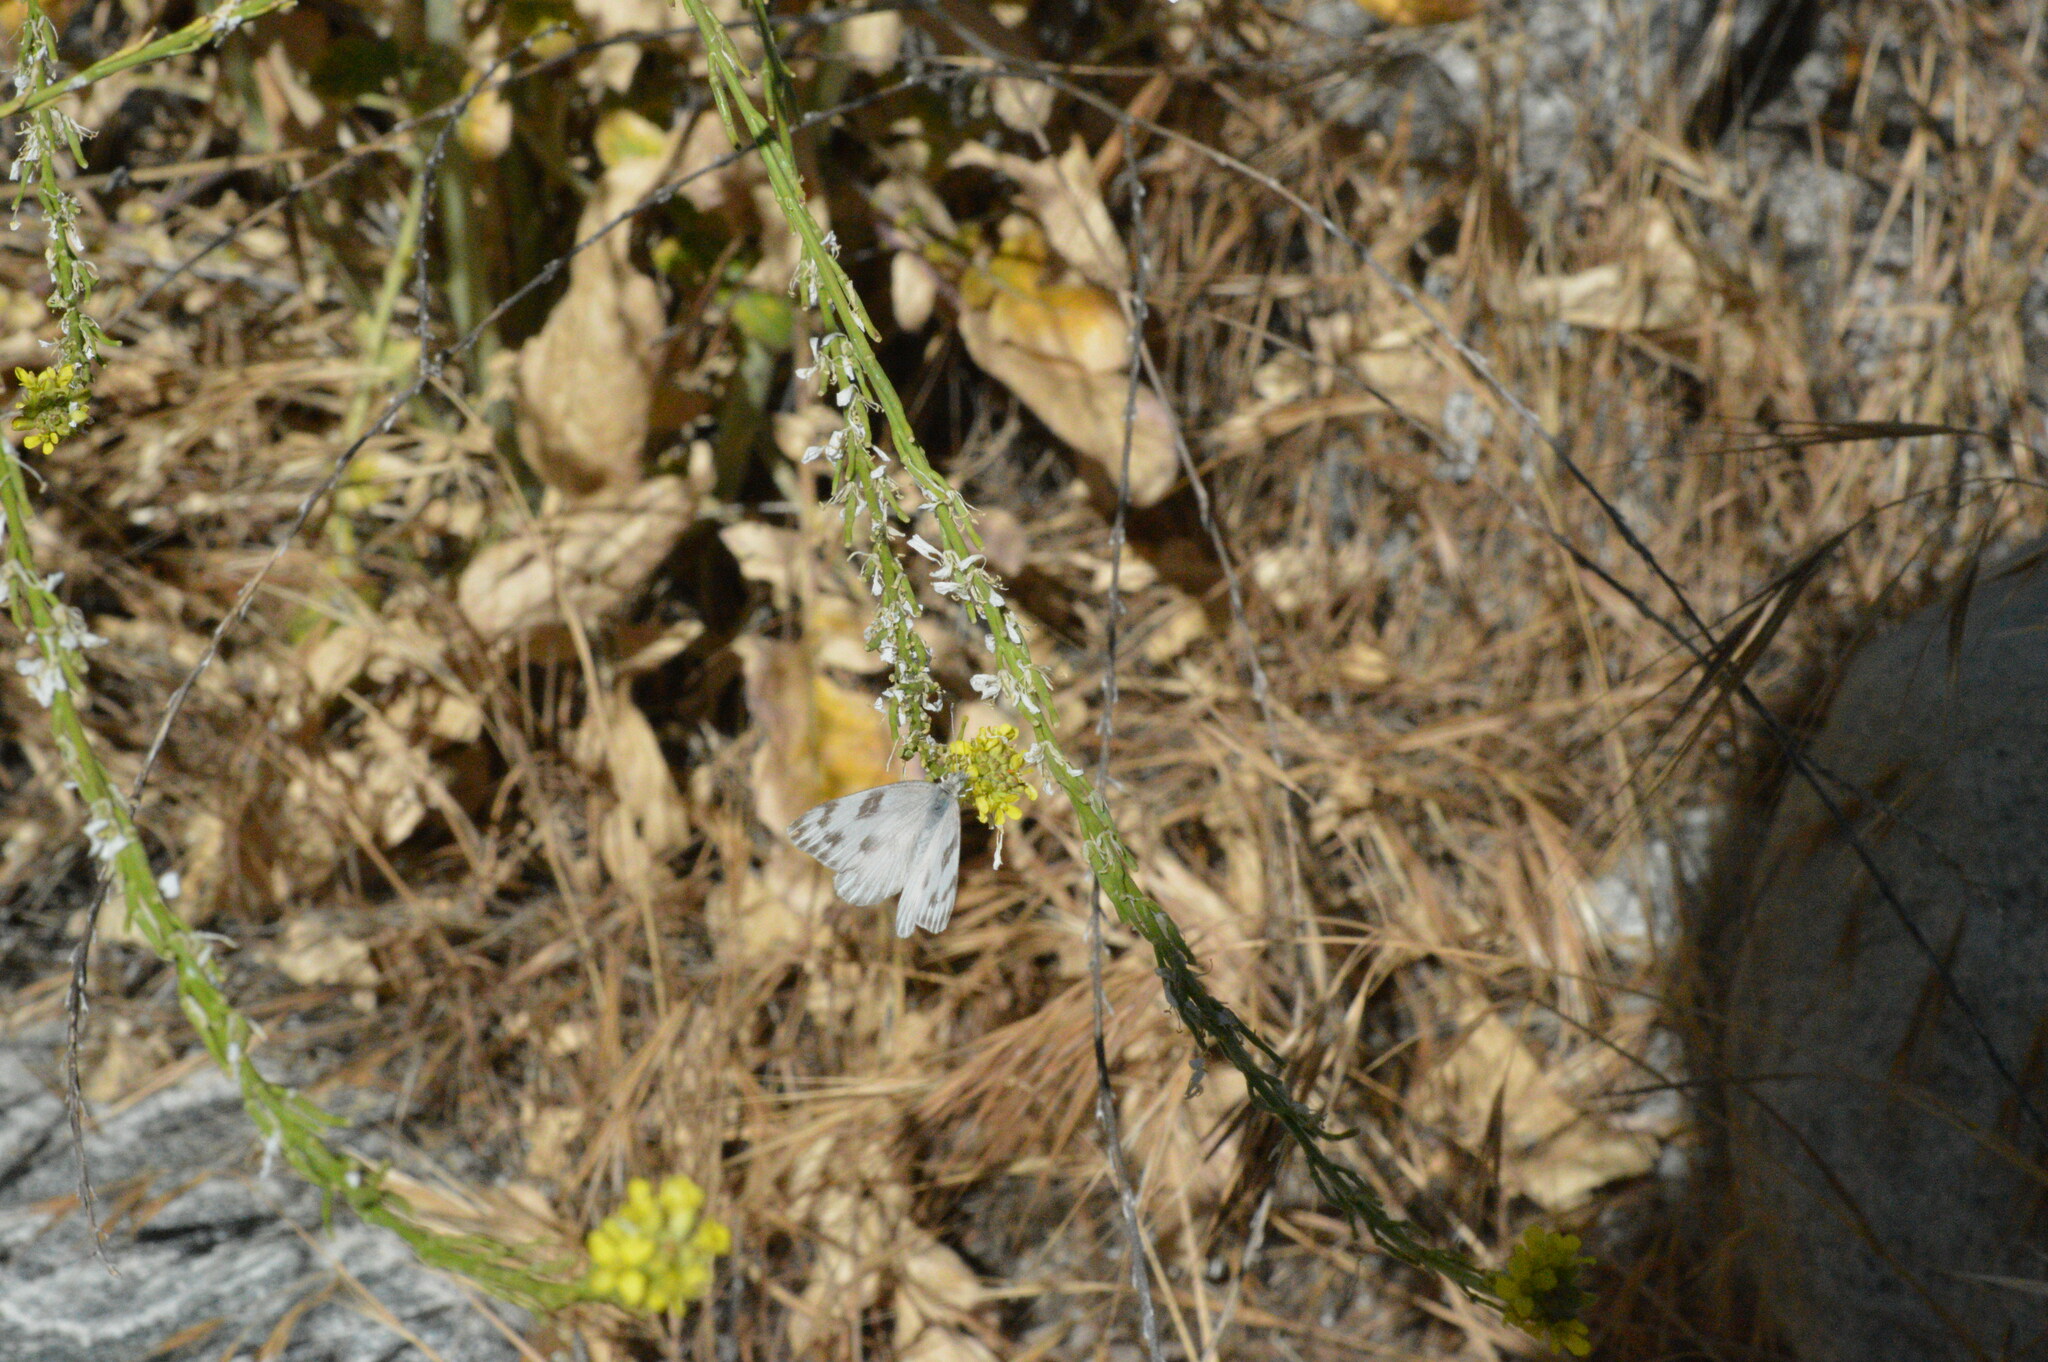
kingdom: Animalia
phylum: Arthropoda
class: Insecta
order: Lepidoptera
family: Pieridae
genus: Pontia
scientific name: Pontia protodice
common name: Checkered white
